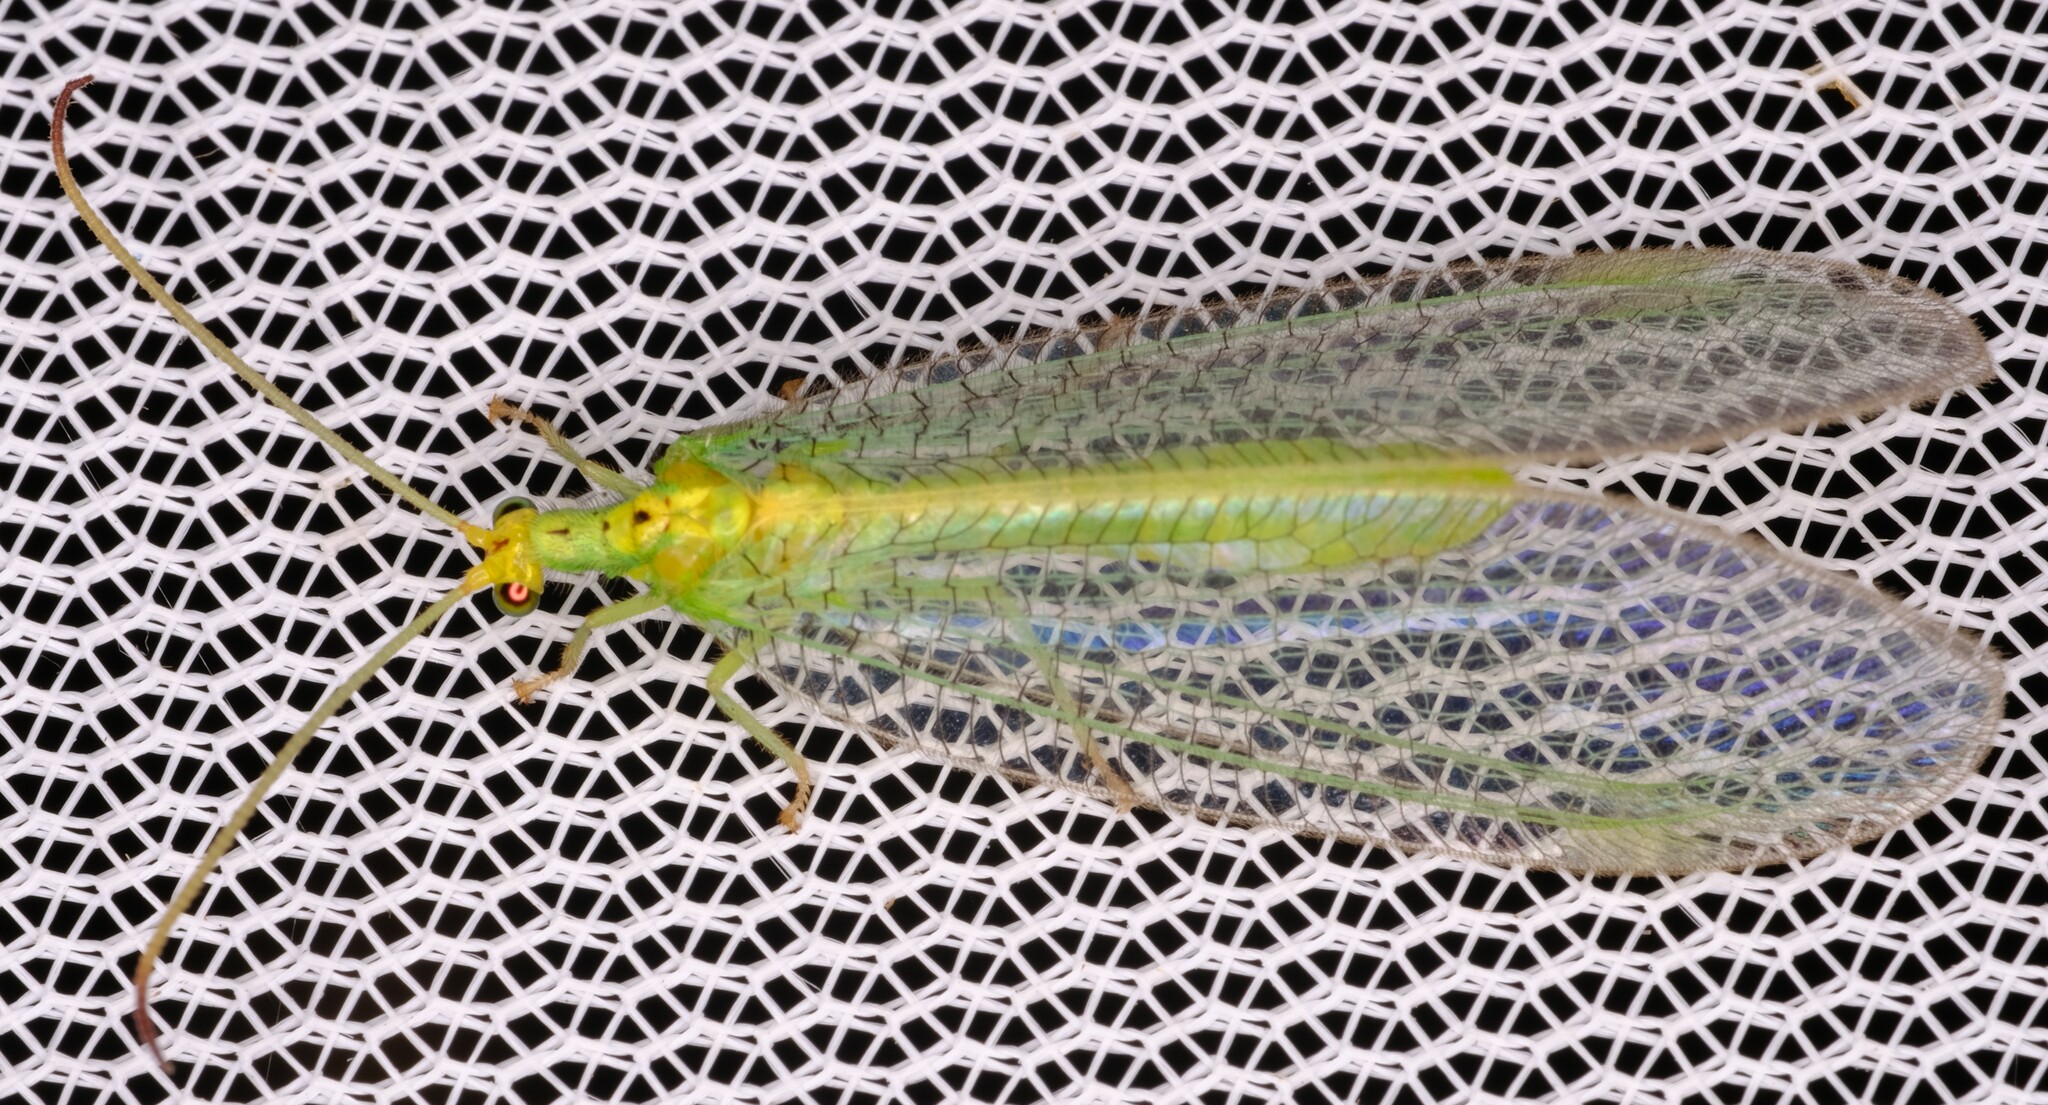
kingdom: Animalia
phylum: Arthropoda
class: Insecta
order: Neuroptera
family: Nymphidae
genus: Osmylops
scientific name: Osmylops sejunctus
